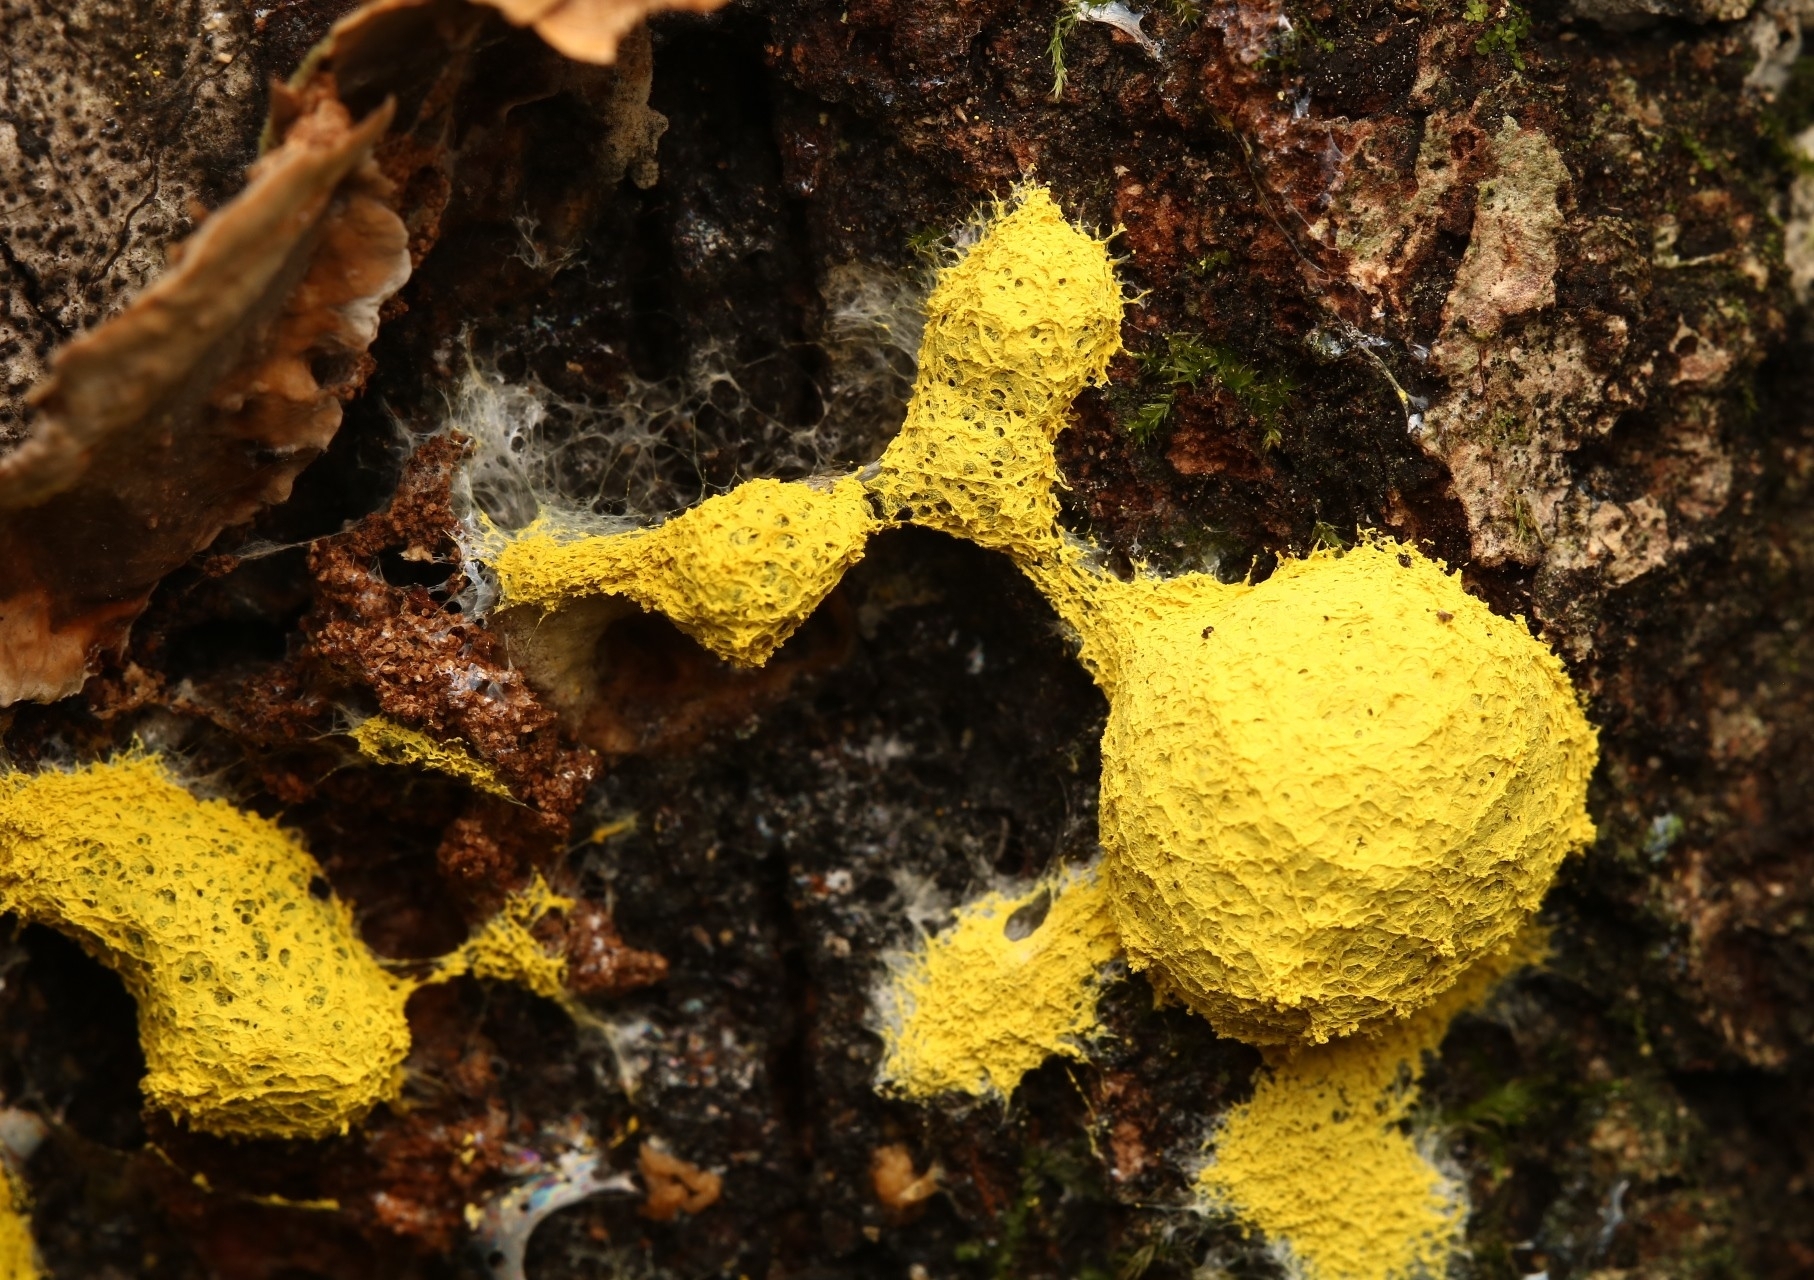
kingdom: Protozoa
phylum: Mycetozoa
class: Myxomycetes
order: Physarales
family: Physaraceae
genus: Fuligo
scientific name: Fuligo septica
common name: Dog vomit slime mold
